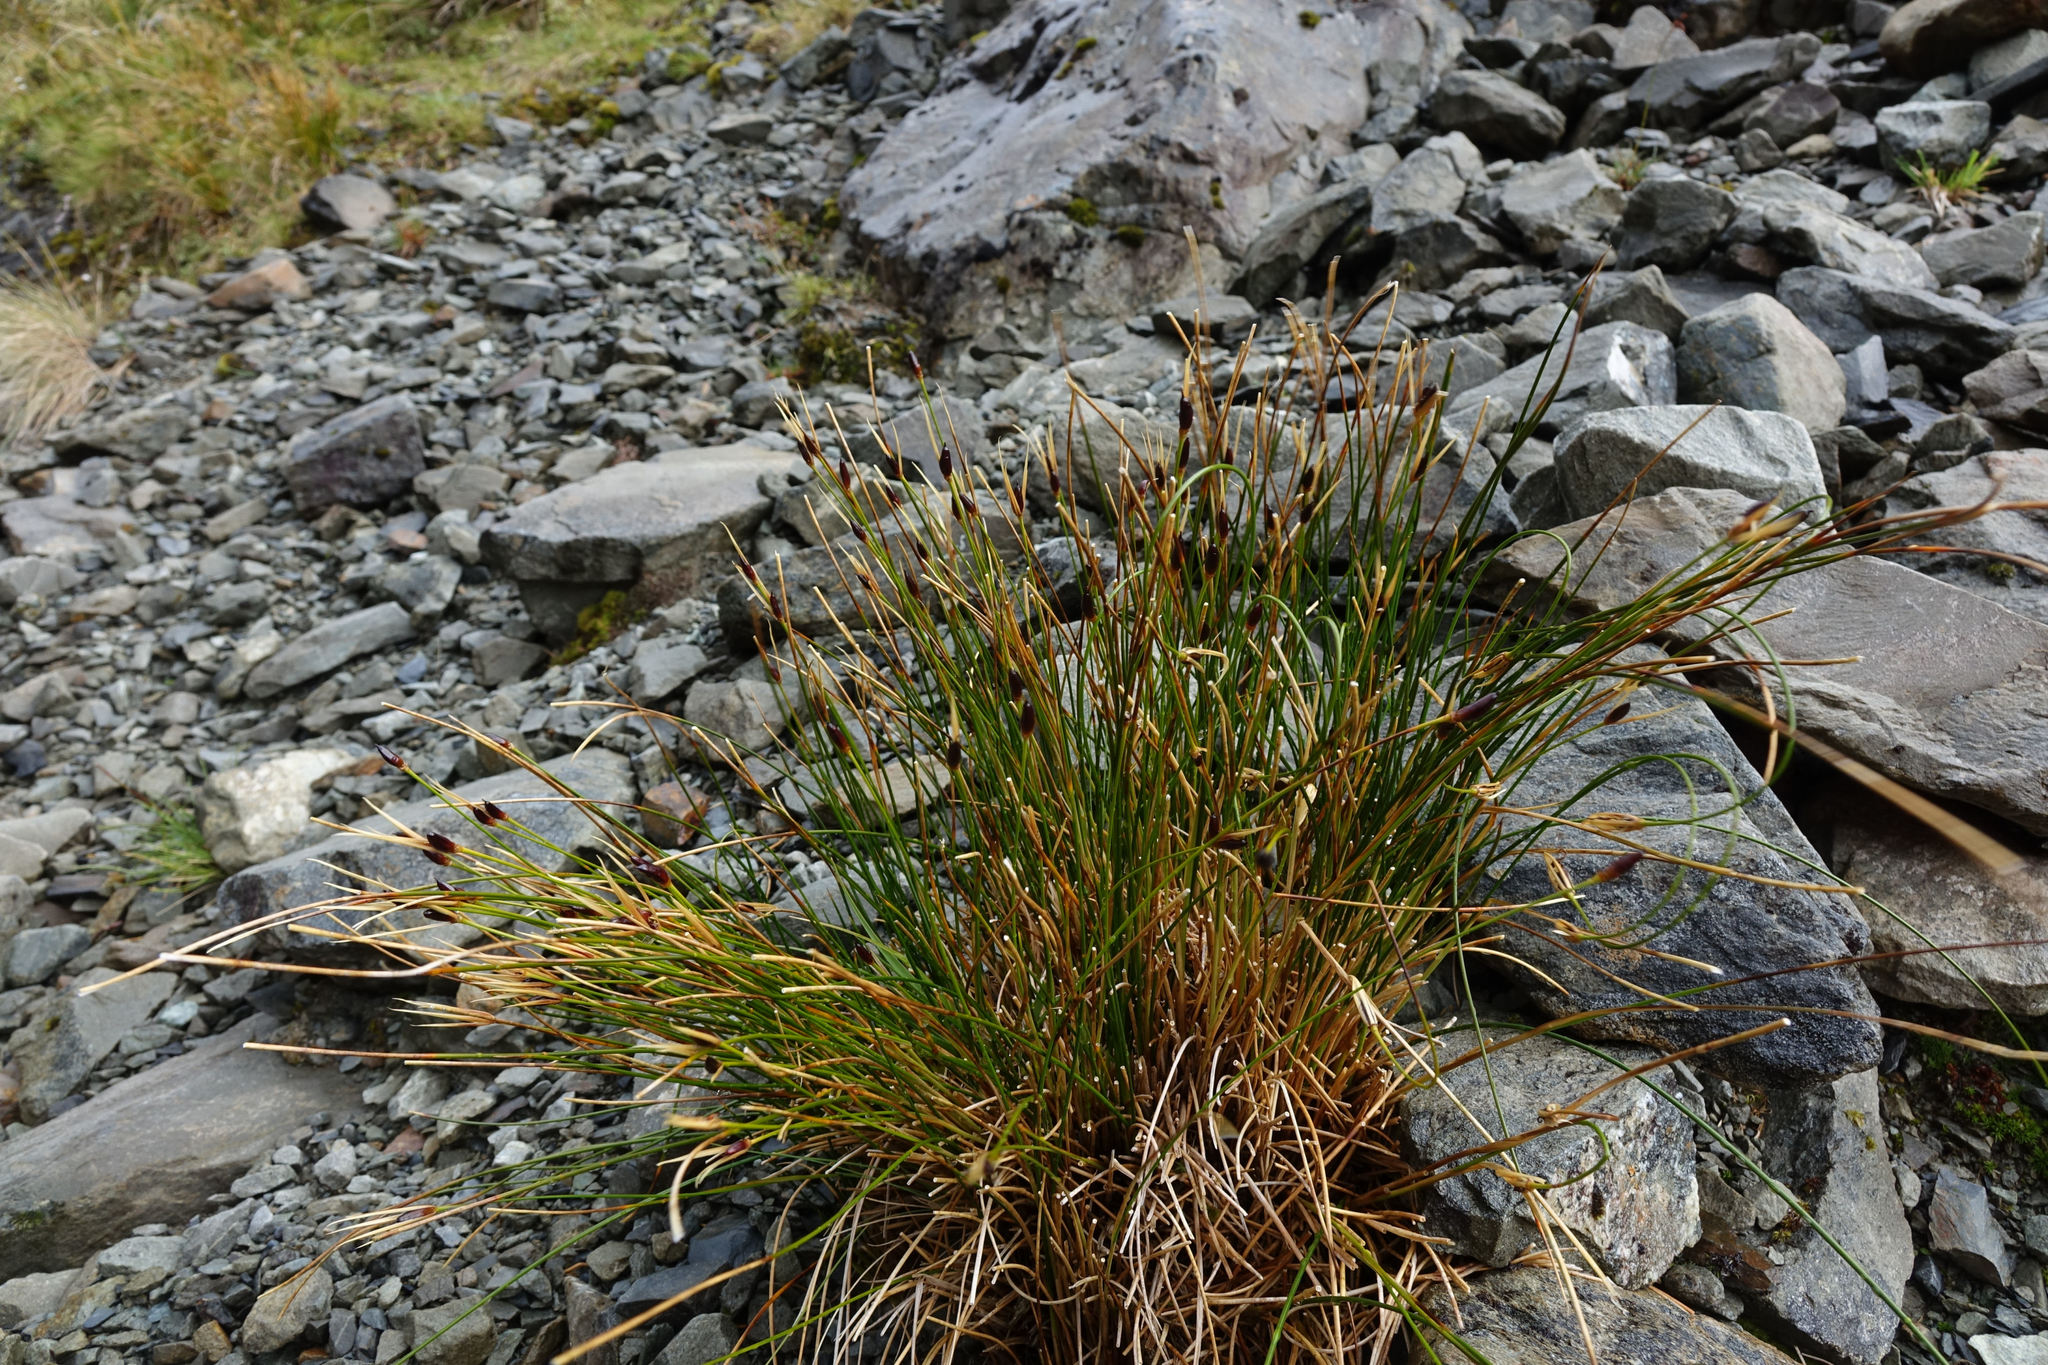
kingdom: Plantae
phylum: Tracheophyta
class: Liliopsida
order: Poales
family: Juncaceae
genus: Marsippospermum
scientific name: Marsippospermum gracile
